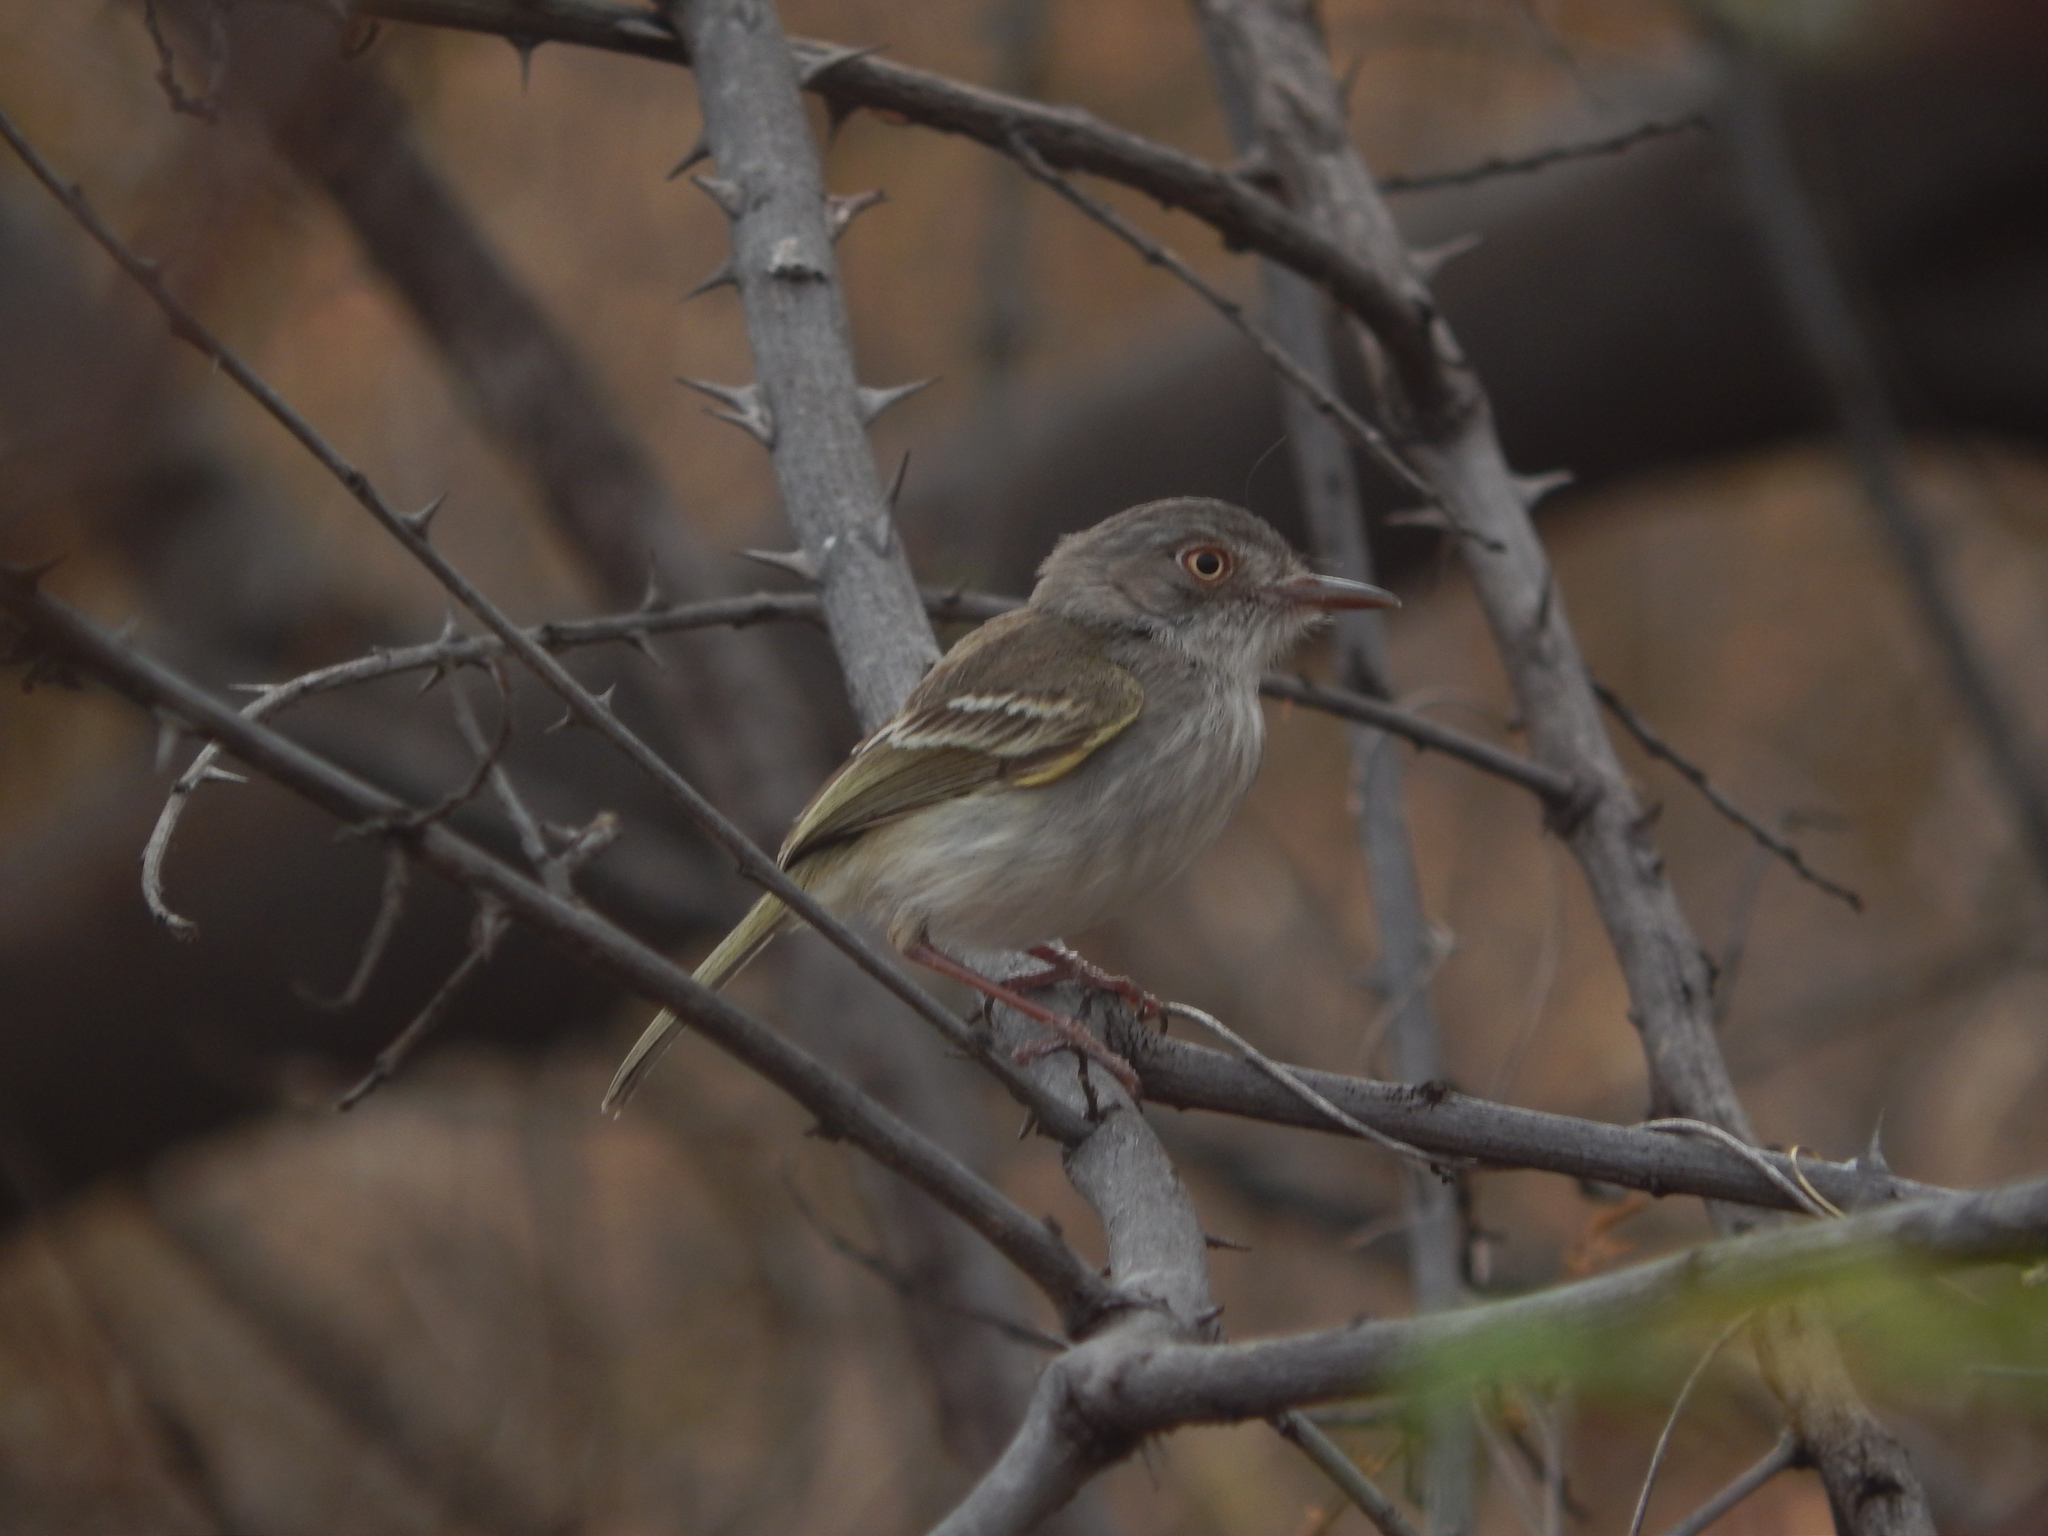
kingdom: Animalia
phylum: Chordata
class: Aves
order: Passeriformes
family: Tyrannidae
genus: Hemitriccus
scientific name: Hemitriccus margaritaceiventer
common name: Pearly-vented tody-tyrant
